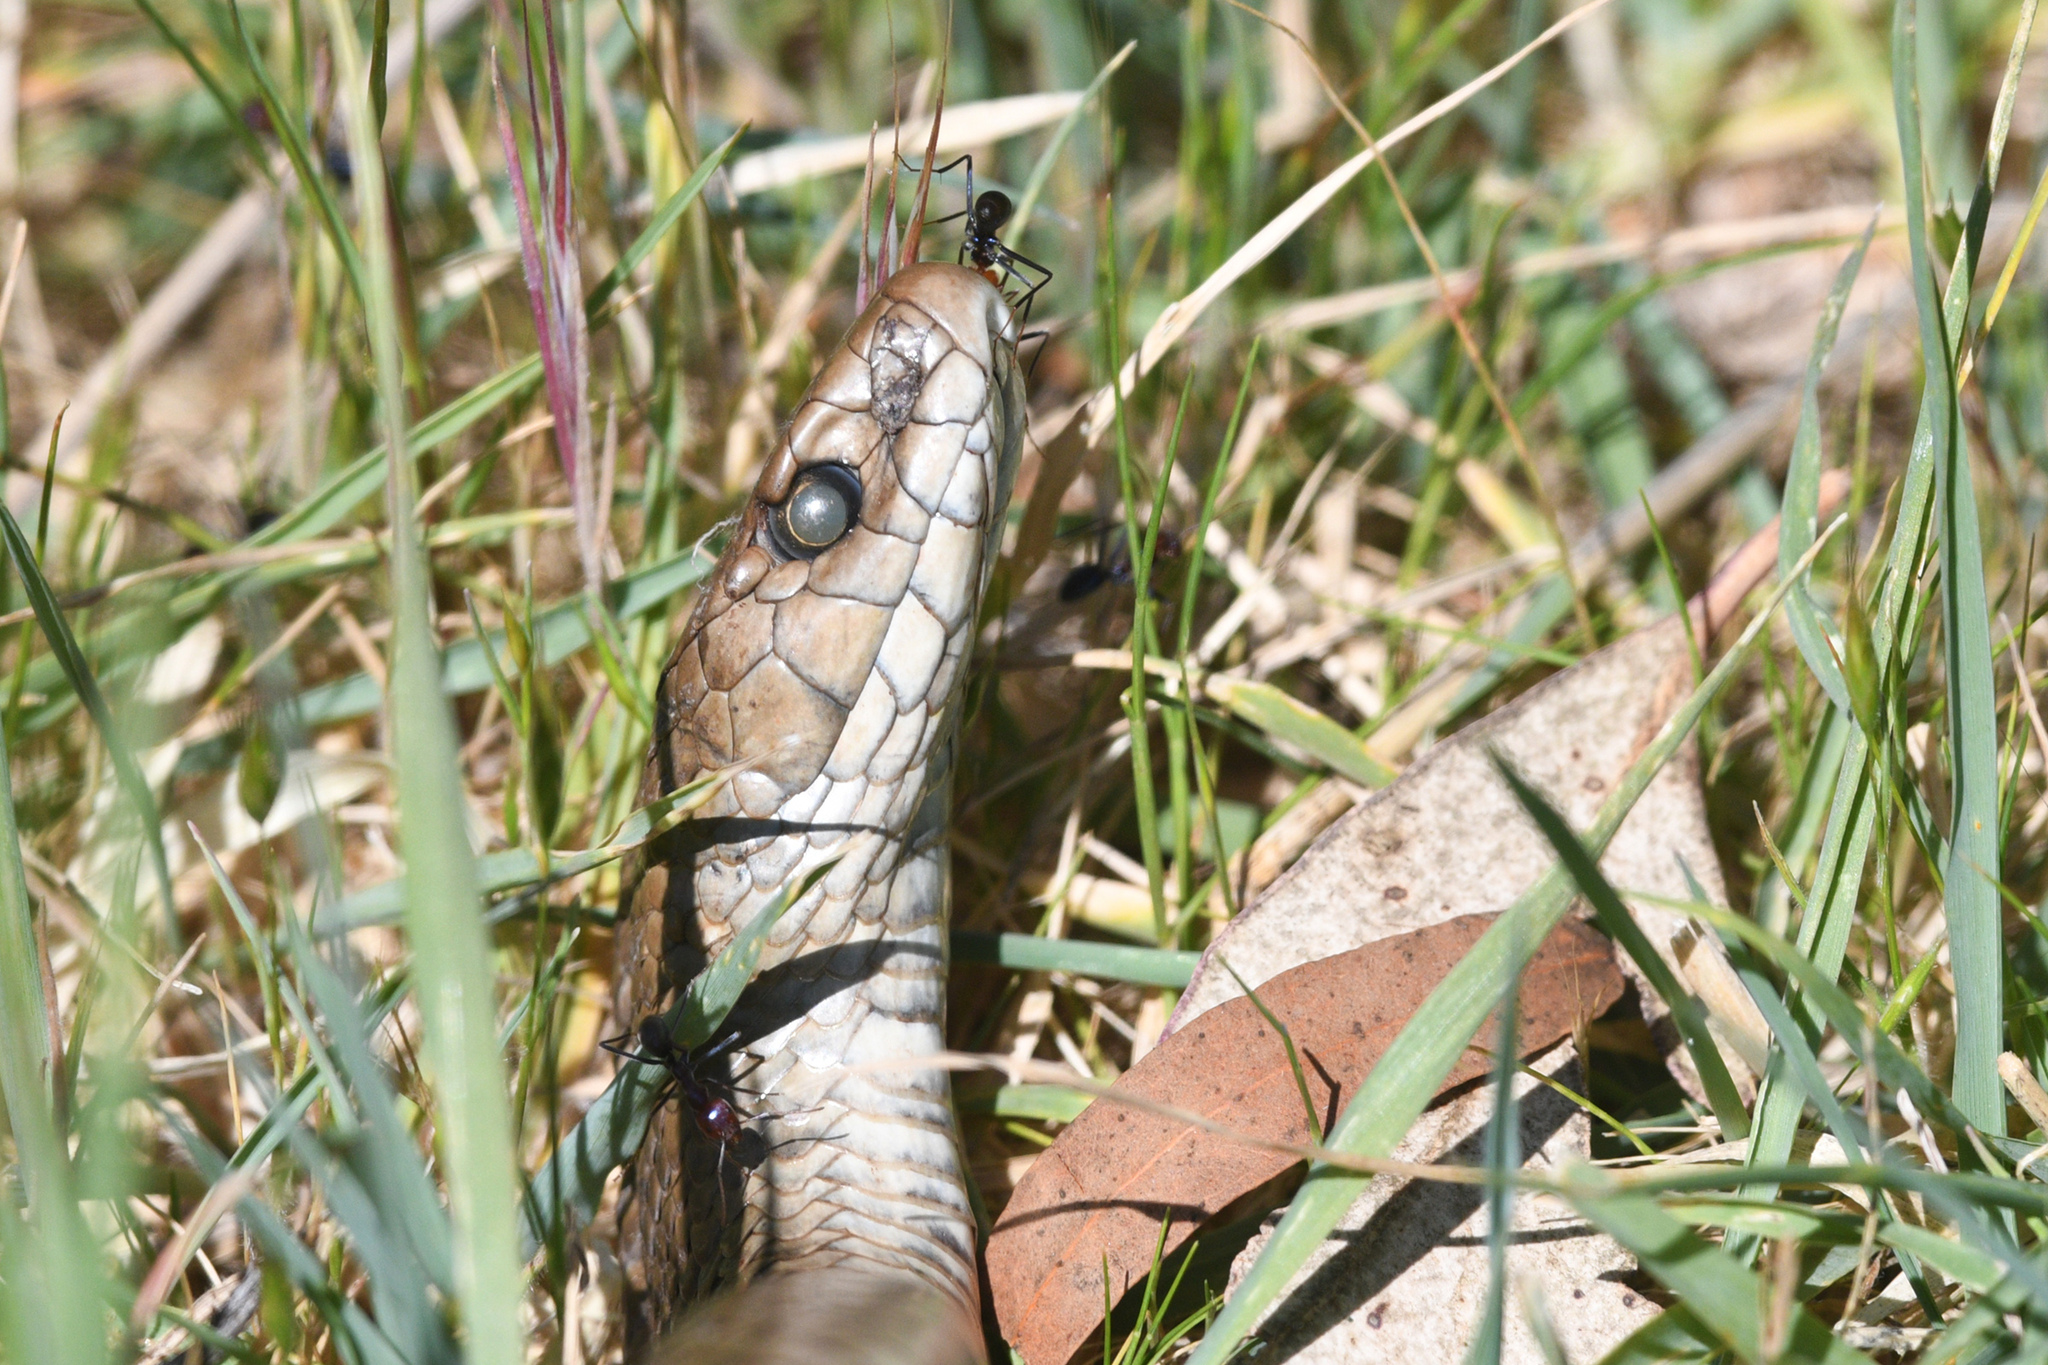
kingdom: Animalia
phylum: Chordata
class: Squamata
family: Elapidae
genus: Pseudonaja
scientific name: Pseudonaja textilis
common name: Eastern brown snake
